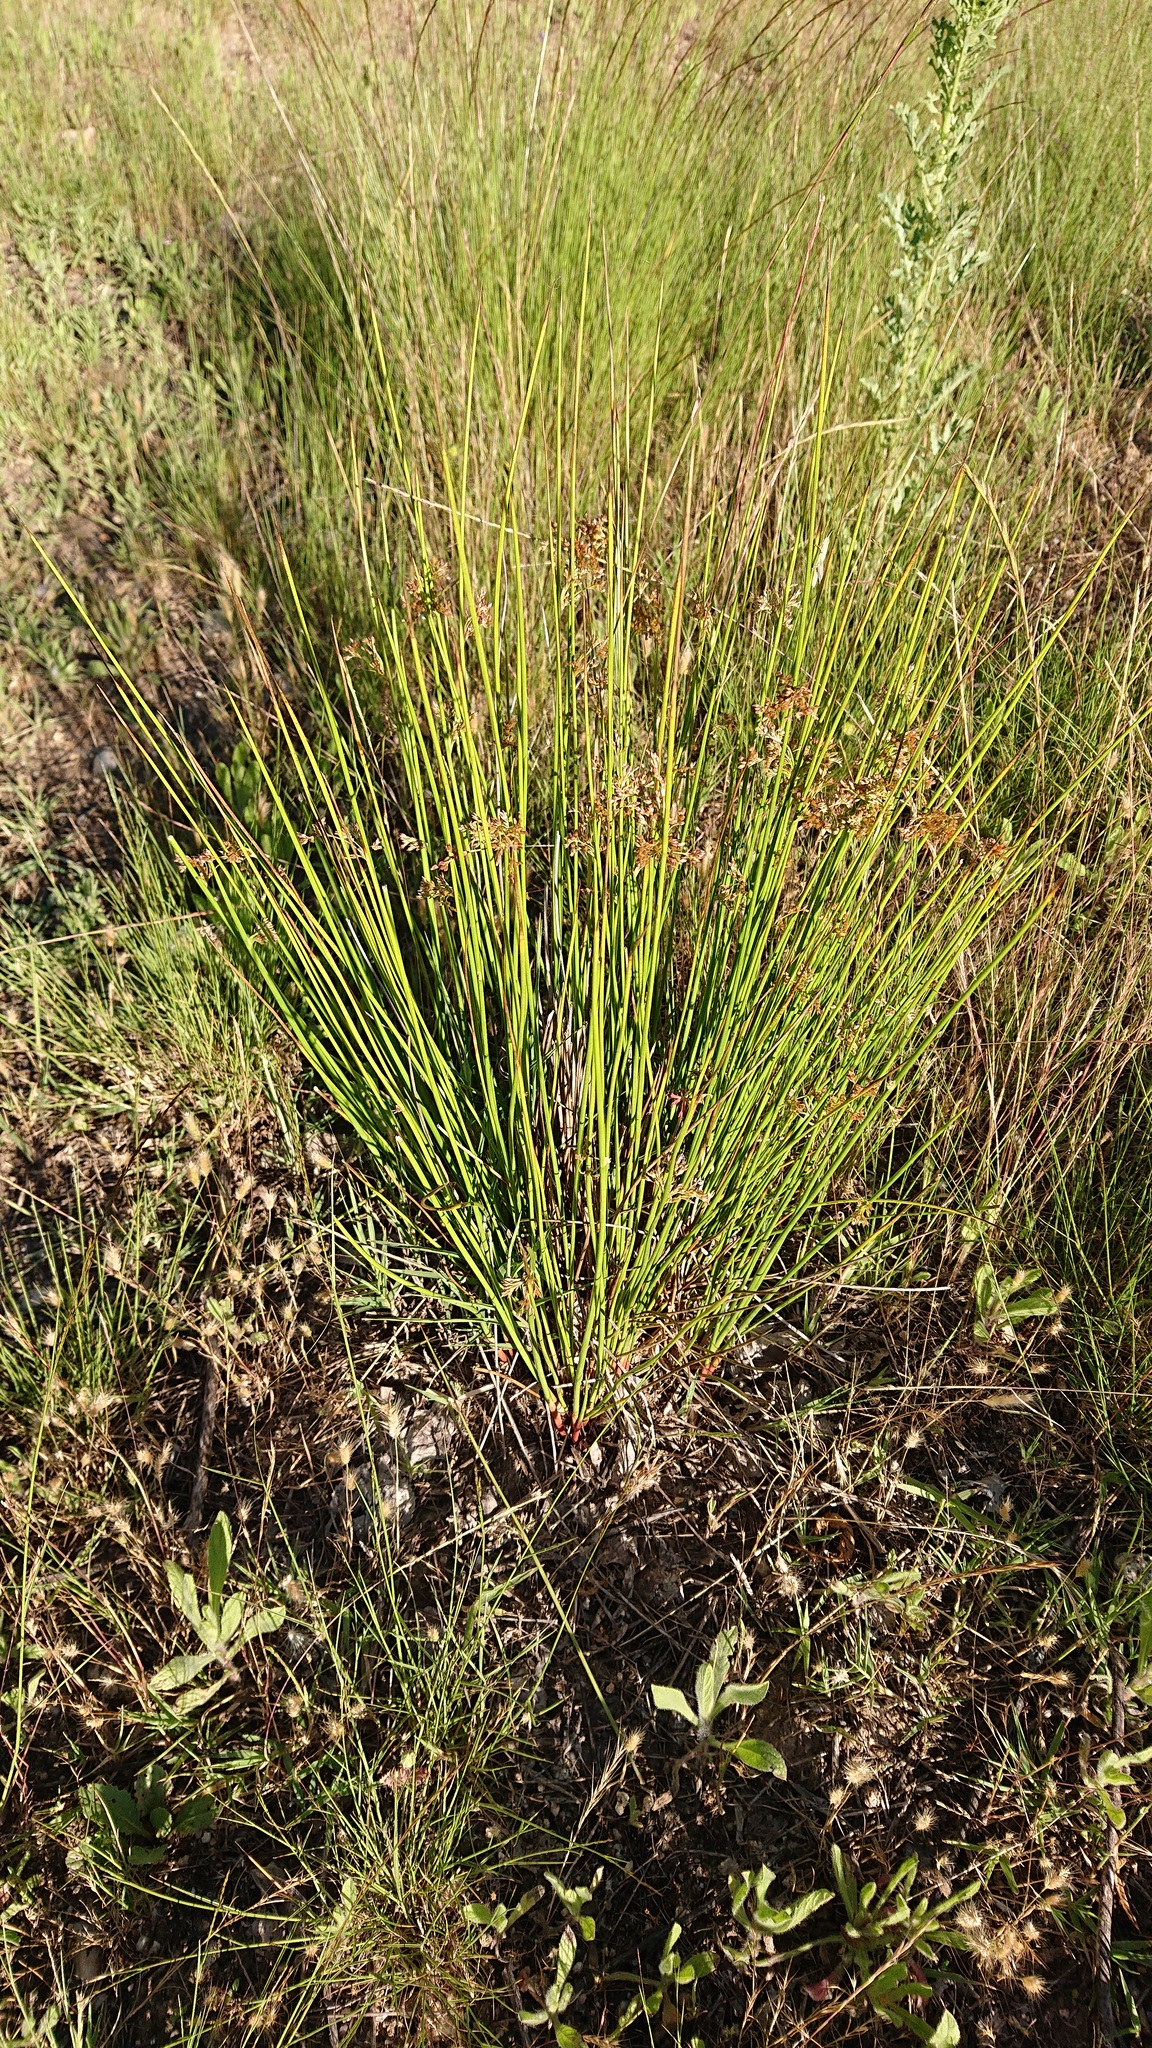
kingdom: Plantae
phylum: Tracheophyta
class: Liliopsida
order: Poales
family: Juncaceae
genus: Juncus
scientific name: Juncus effusus
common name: Soft rush
